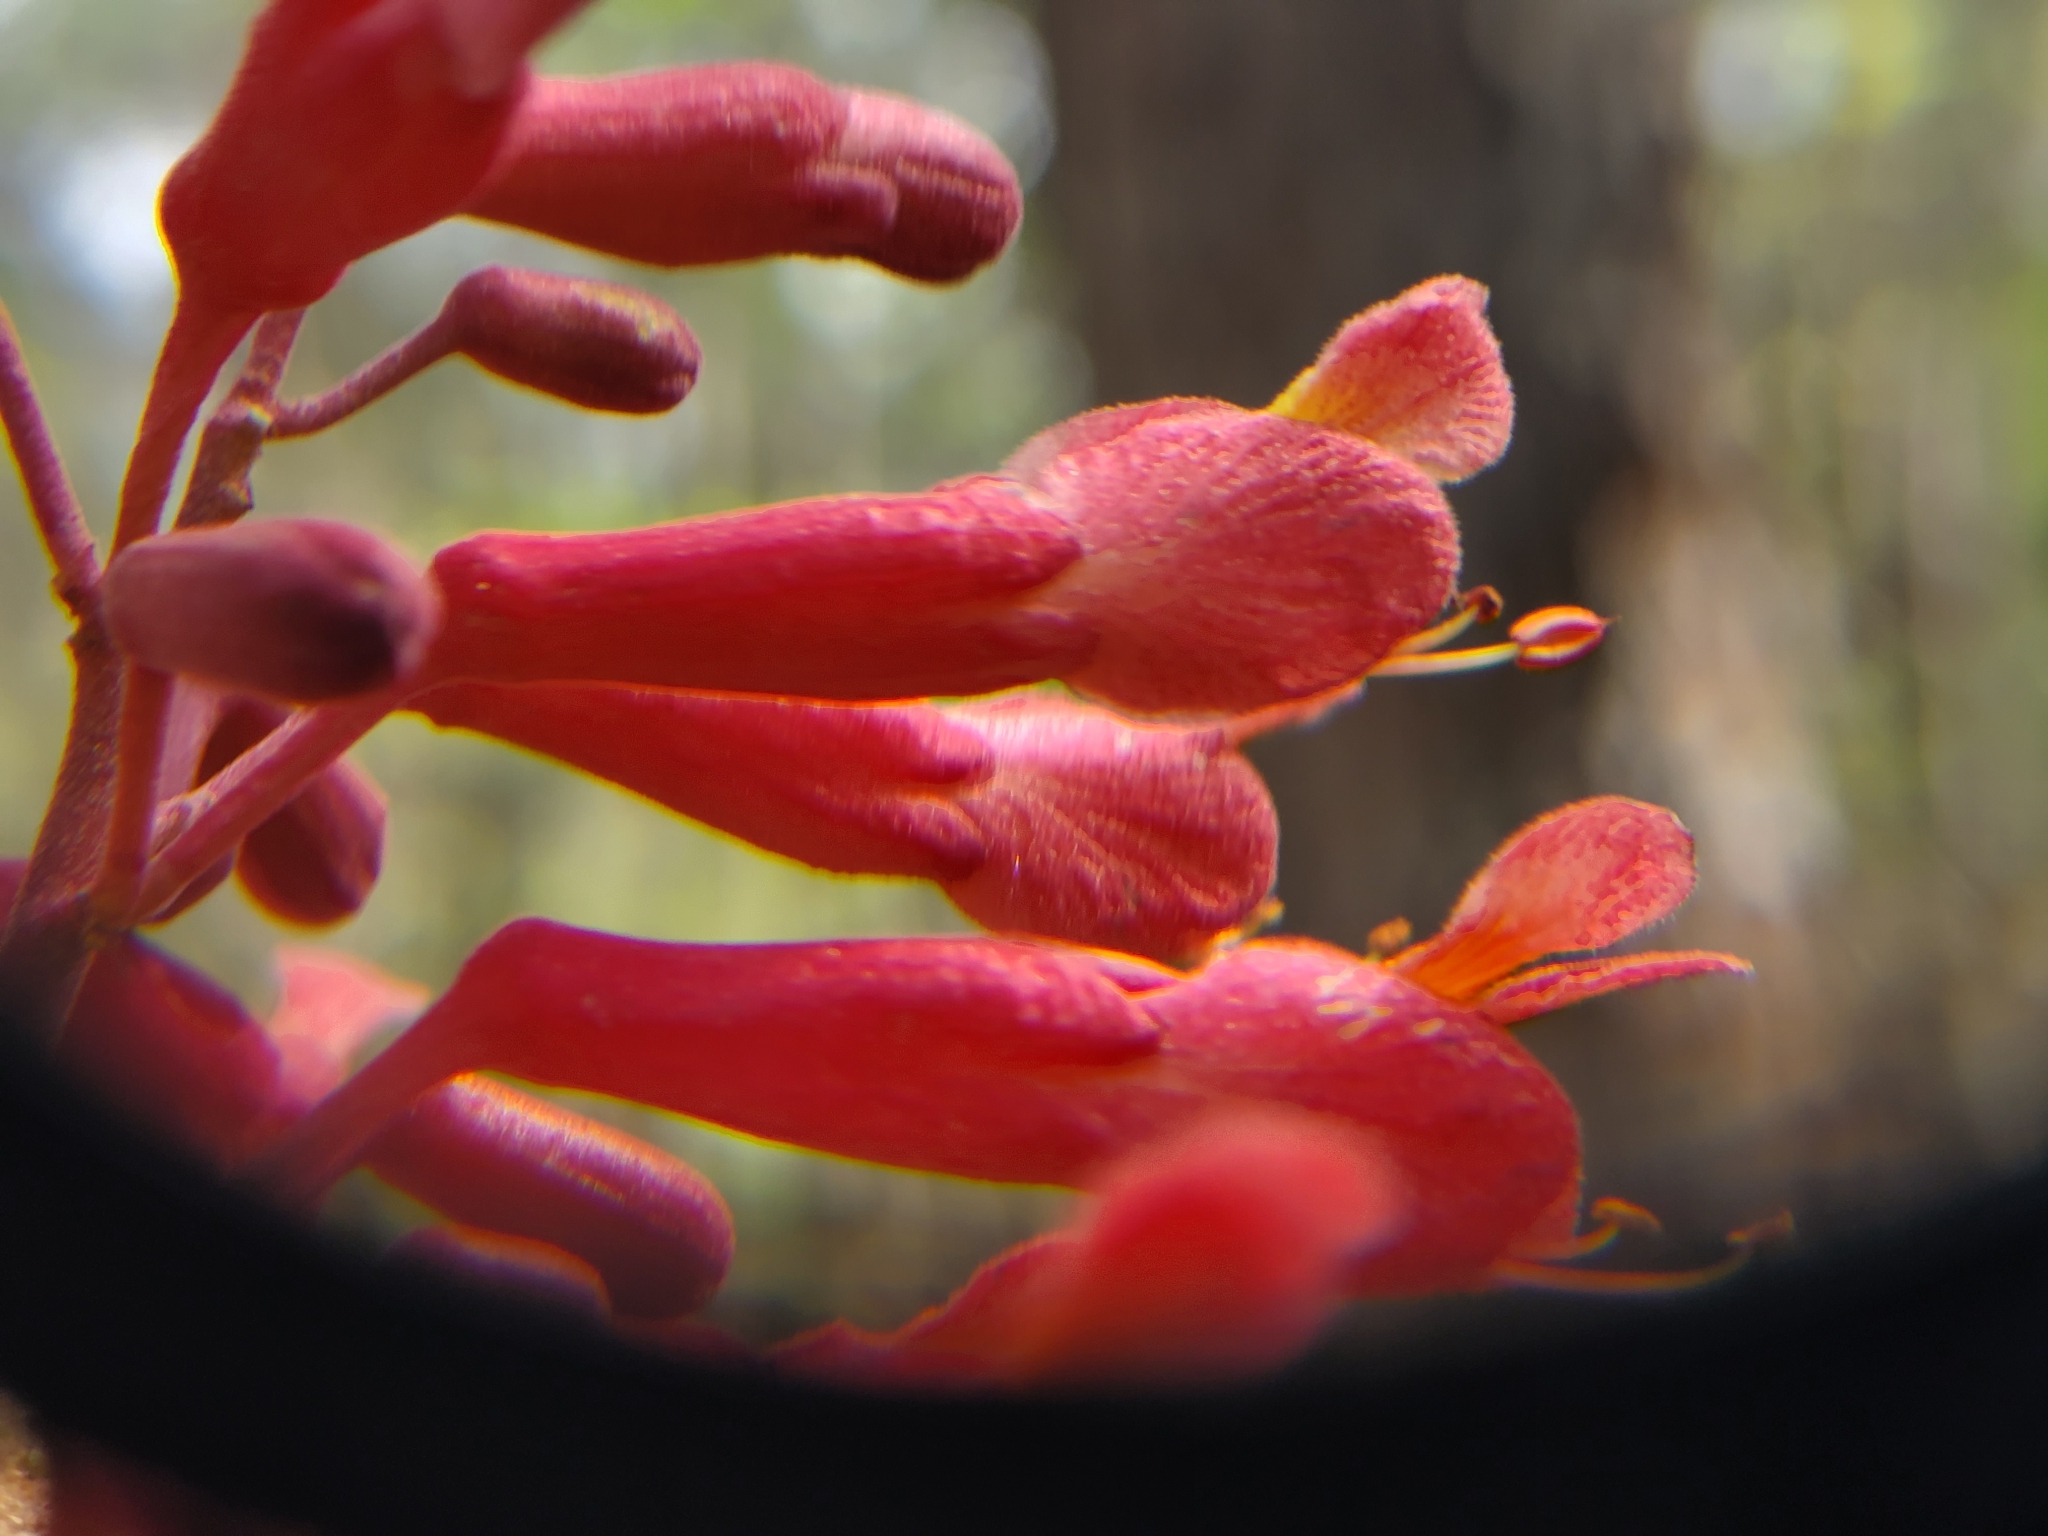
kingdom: Plantae
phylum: Tracheophyta
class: Magnoliopsida
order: Sapindales
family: Sapindaceae
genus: Aesculus
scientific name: Aesculus pavia
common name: Red buckeye
